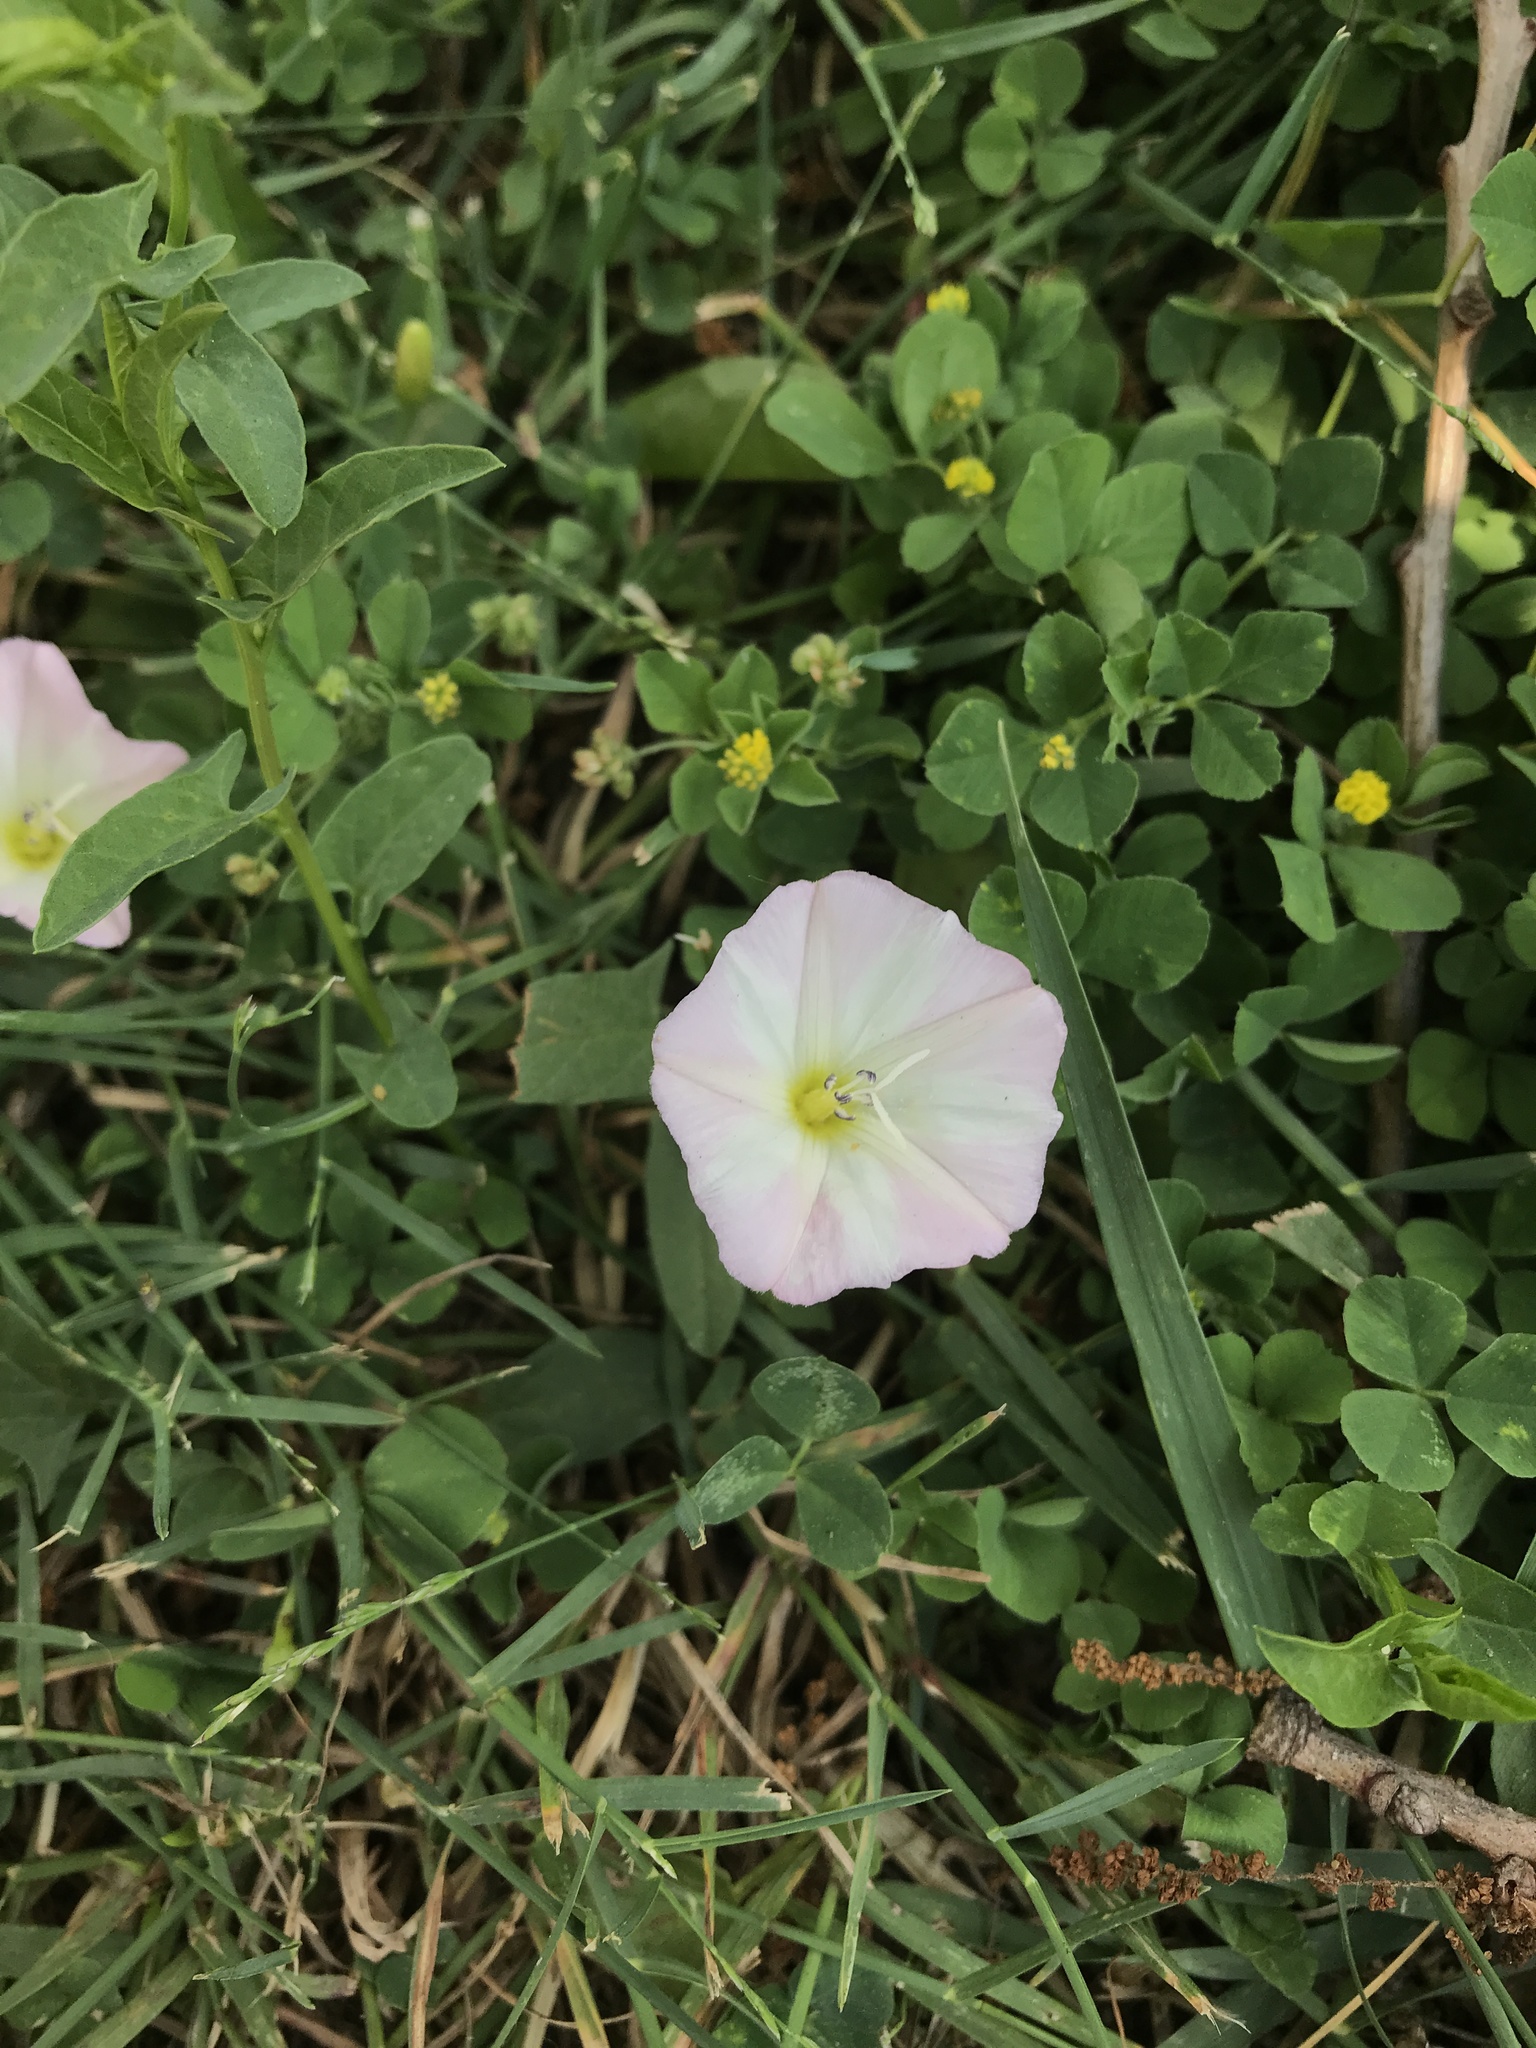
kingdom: Plantae
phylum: Tracheophyta
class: Magnoliopsida
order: Solanales
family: Convolvulaceae
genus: Convolvulus
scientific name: Convolvulus arvensis
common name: Field bindweed
